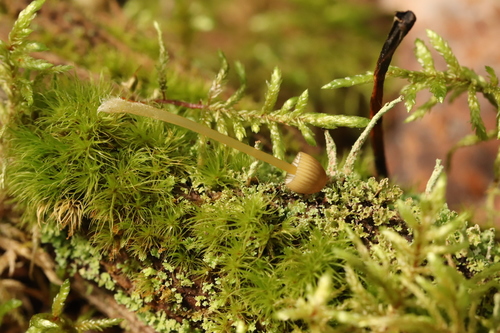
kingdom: Fungi
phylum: Basidiomycota
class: Agaricomycetes
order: Agaricales
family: Mycenaceae
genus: Mycena
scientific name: Mycena viridimarginata
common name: Olive edge bonnet
